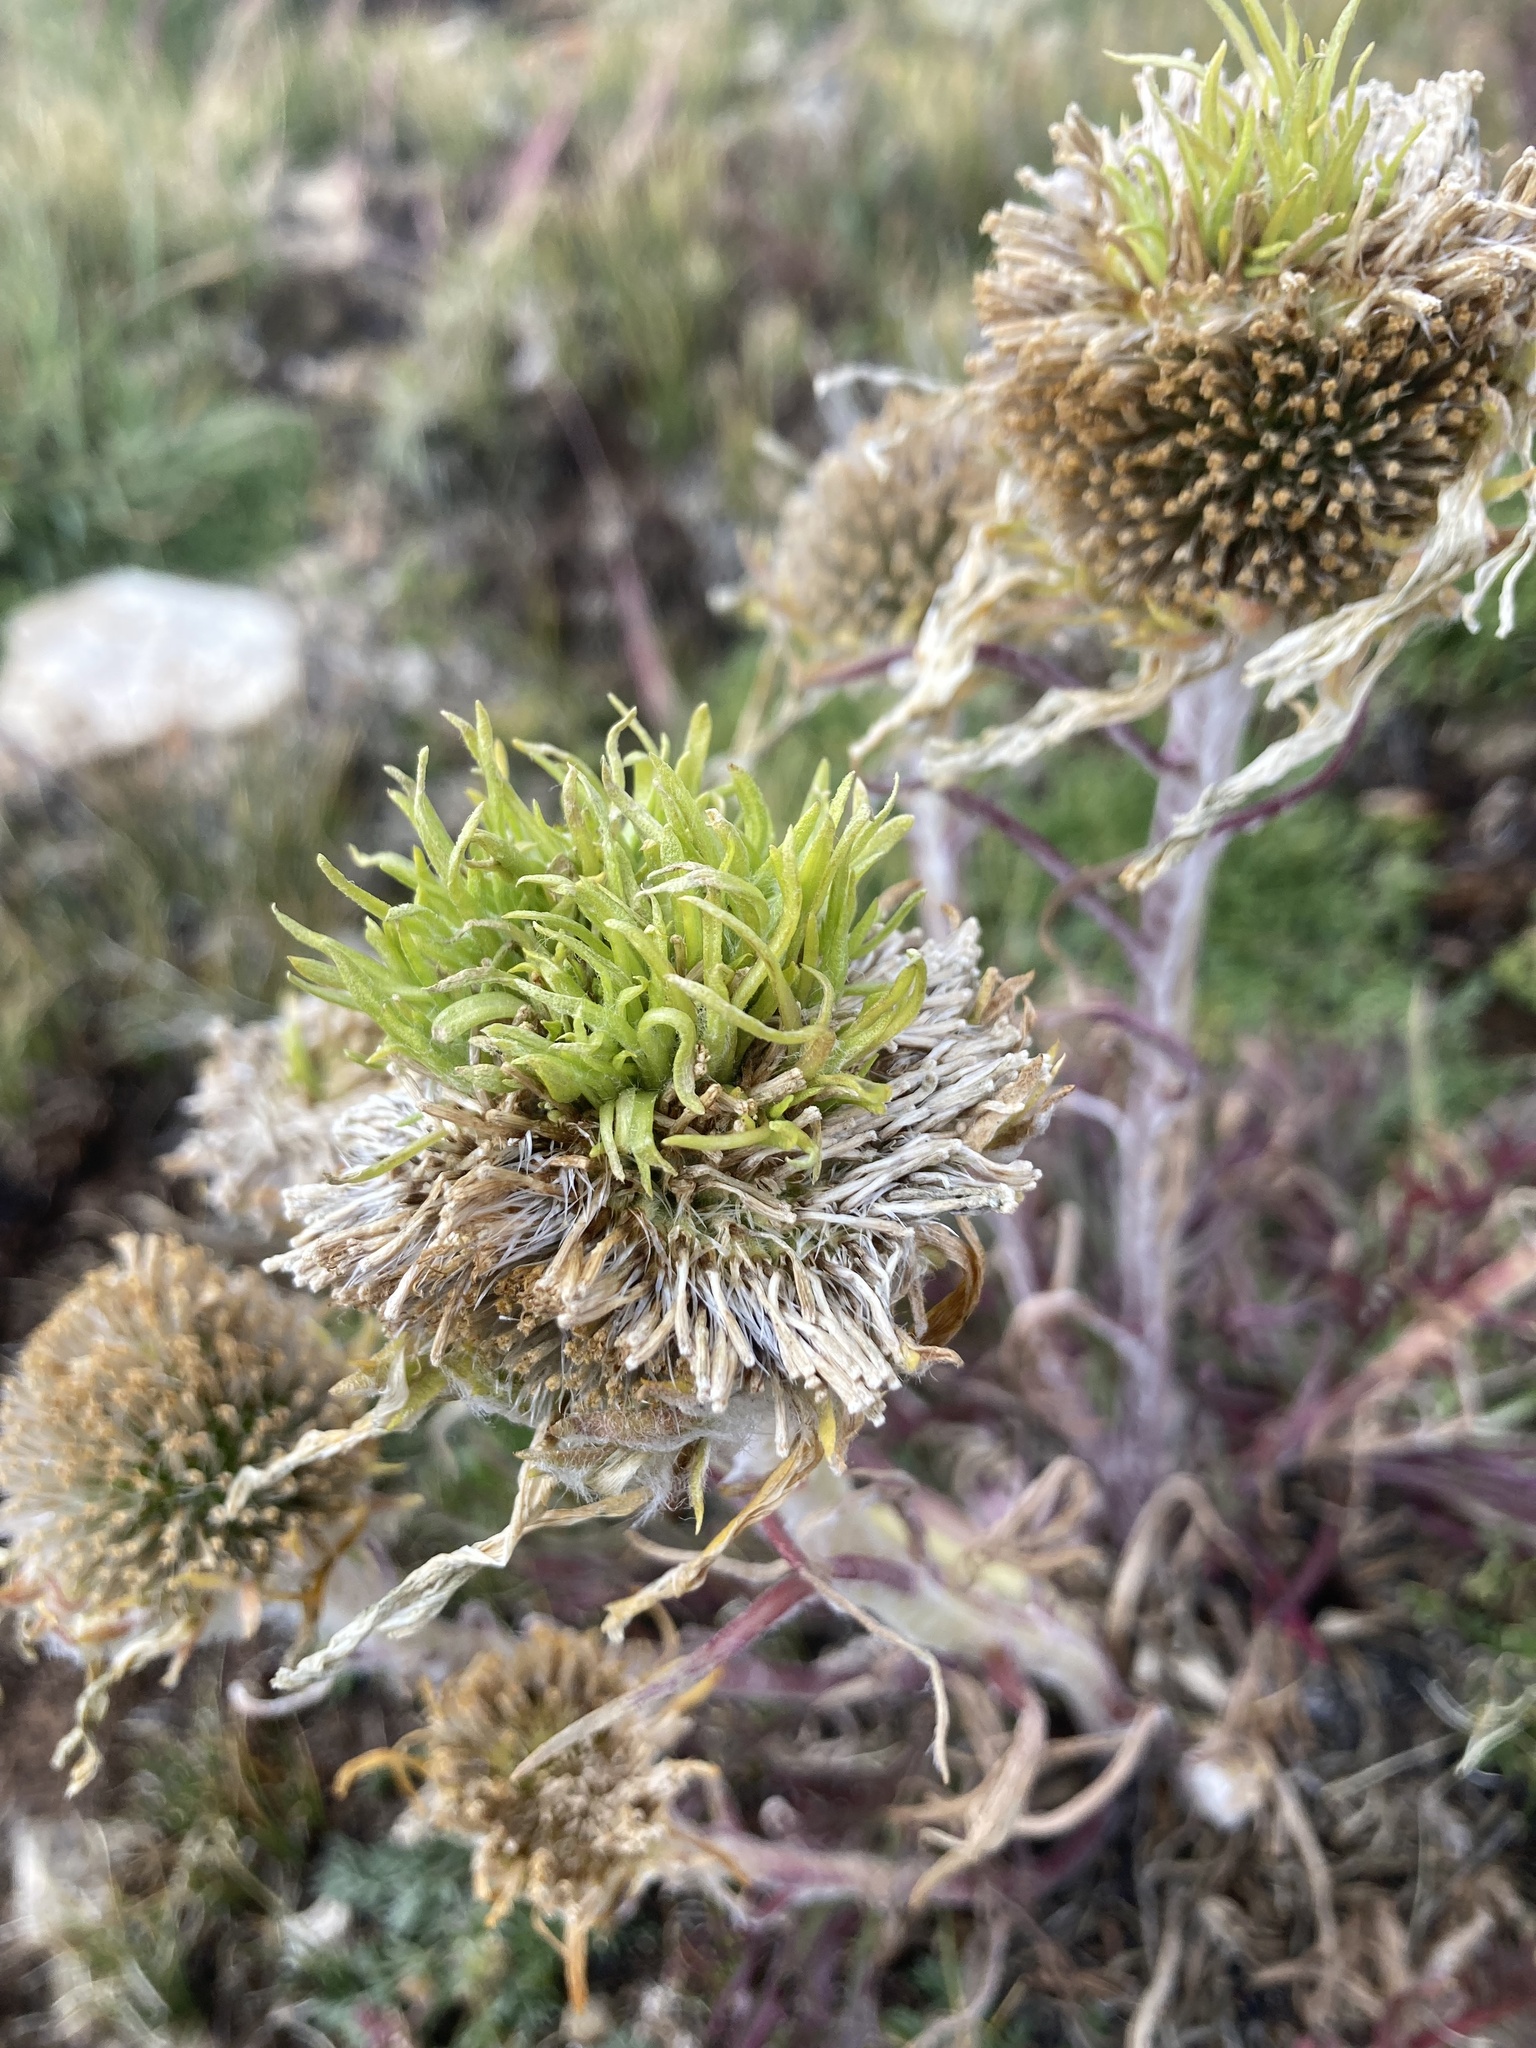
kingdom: Bacteria
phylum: Firmicutes
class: Bacilli
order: Acholeplasmatales
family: Acholeplasmataceae
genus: Phytoplasma
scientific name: Phytoplasma
